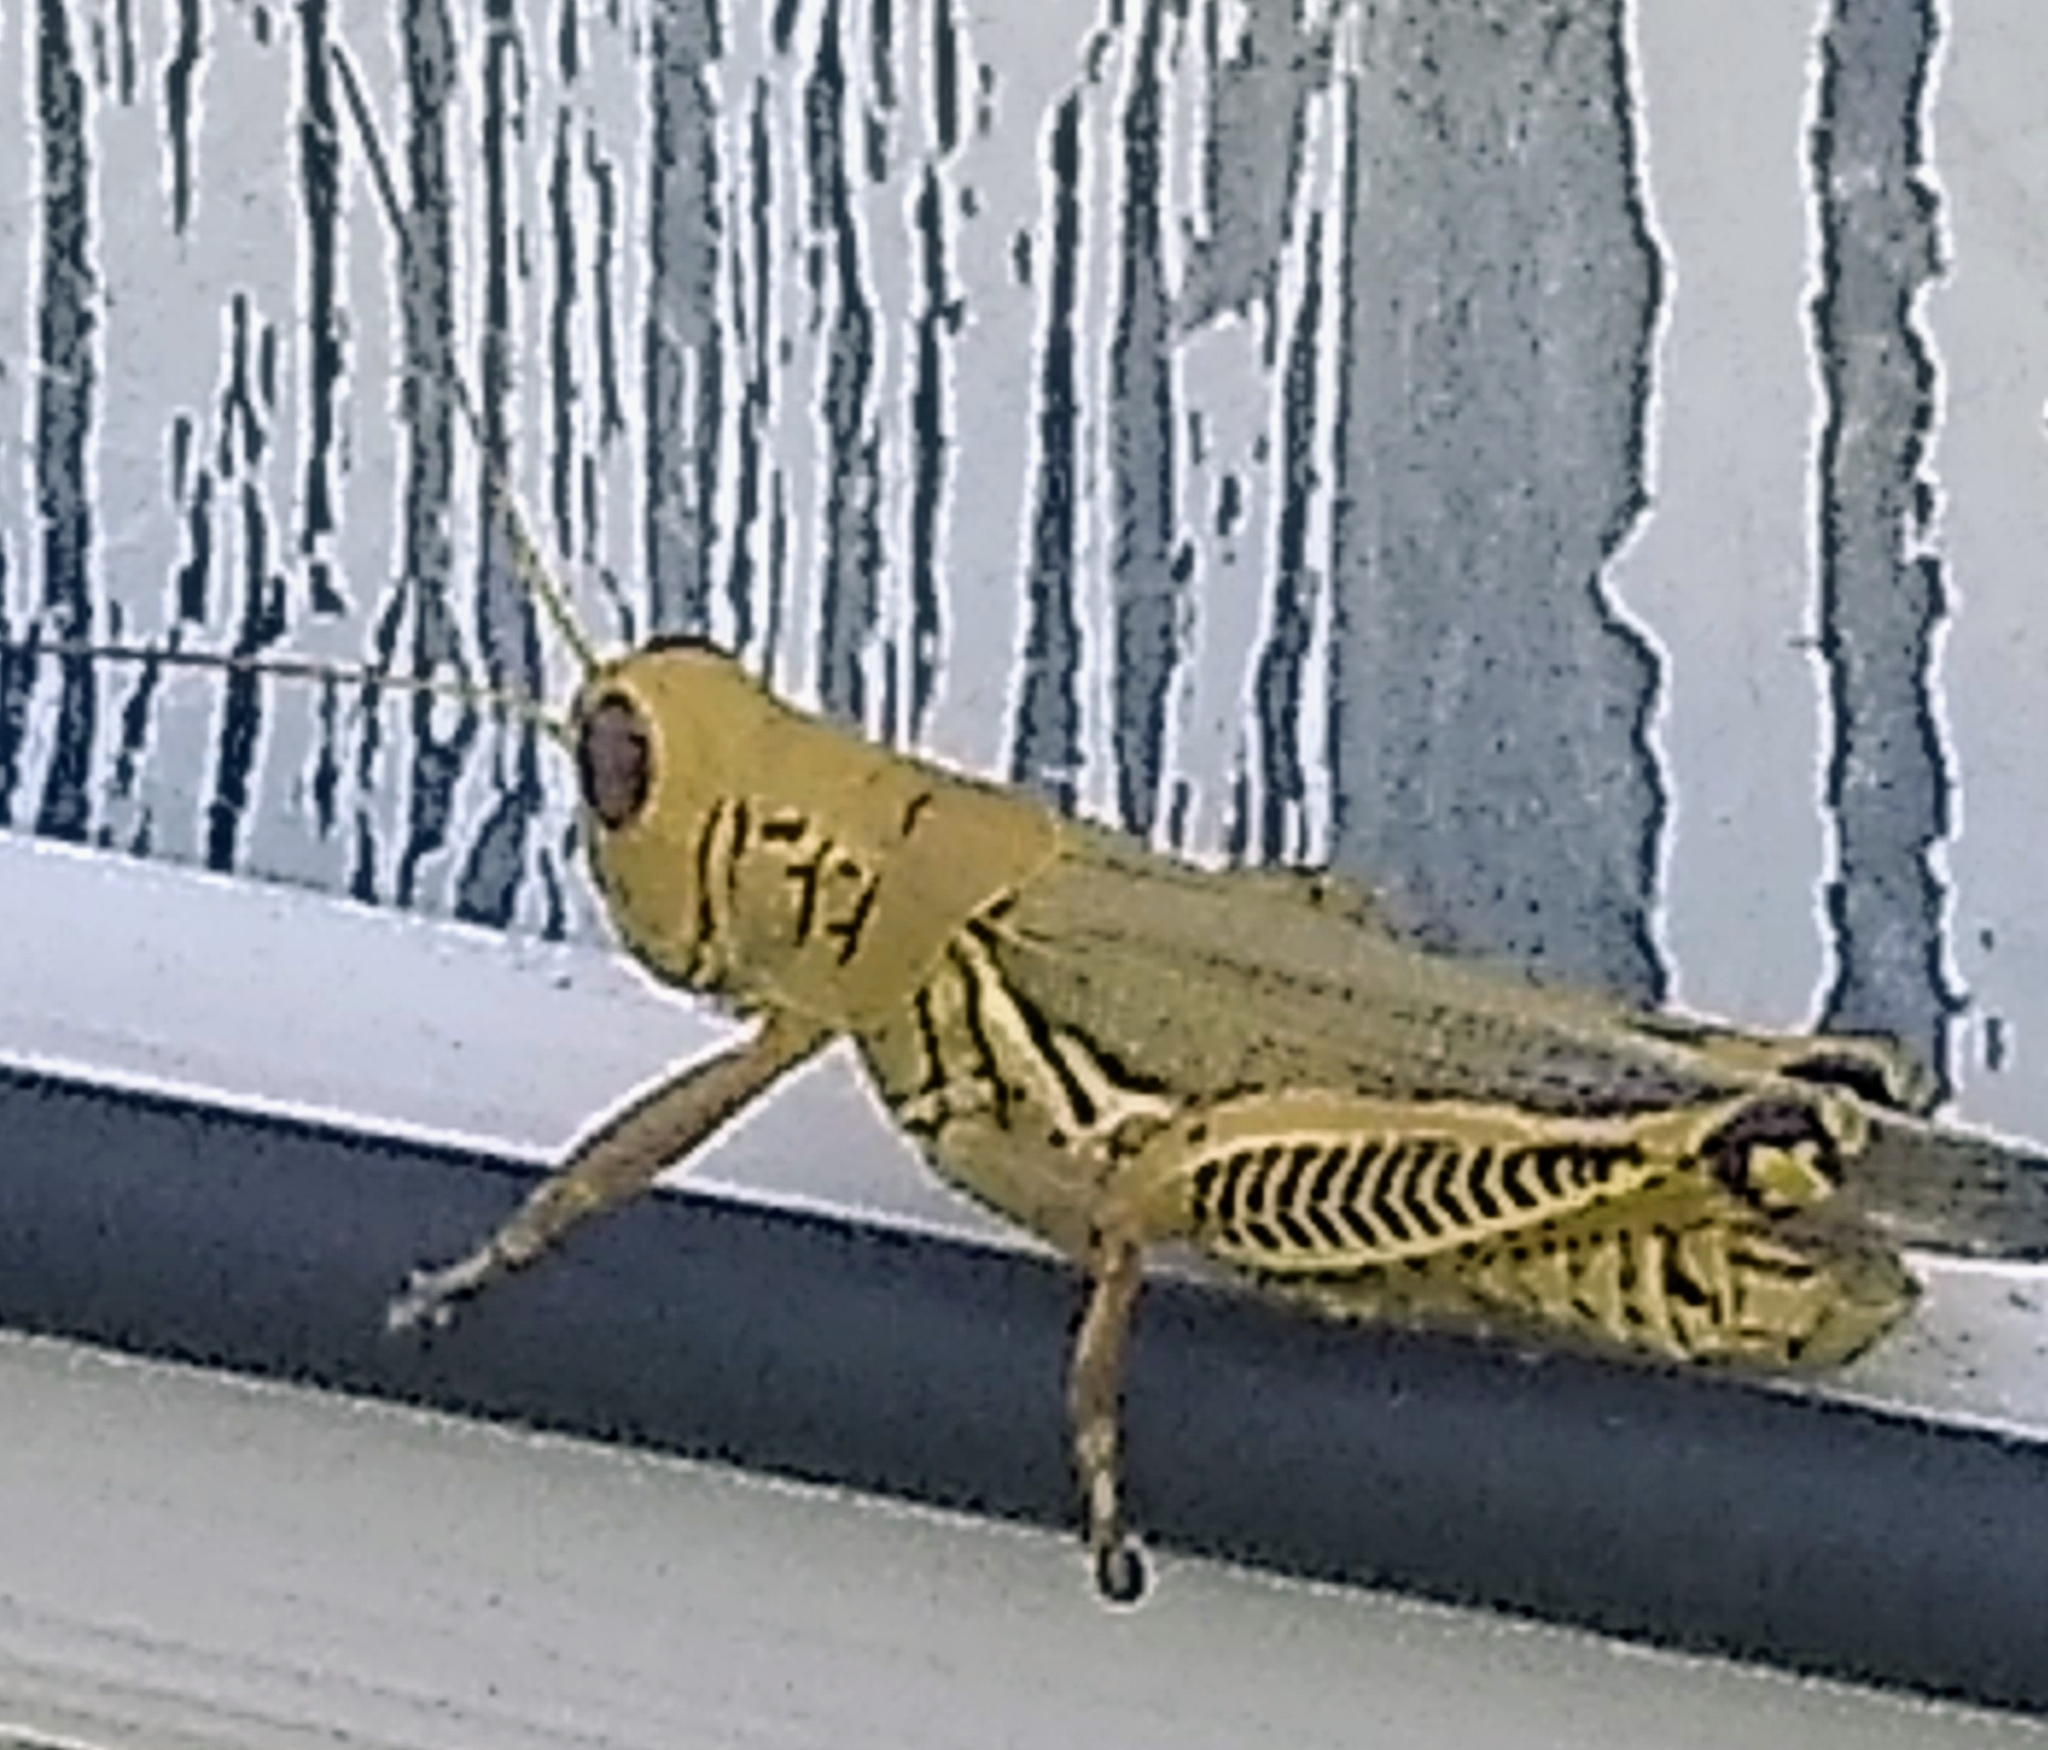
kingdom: Animalia
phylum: Arthropoda
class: Insecta
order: Orthoptera
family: Acrididae
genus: Melanoplus
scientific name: Melanoplus differentialis
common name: Differential grasshopper
